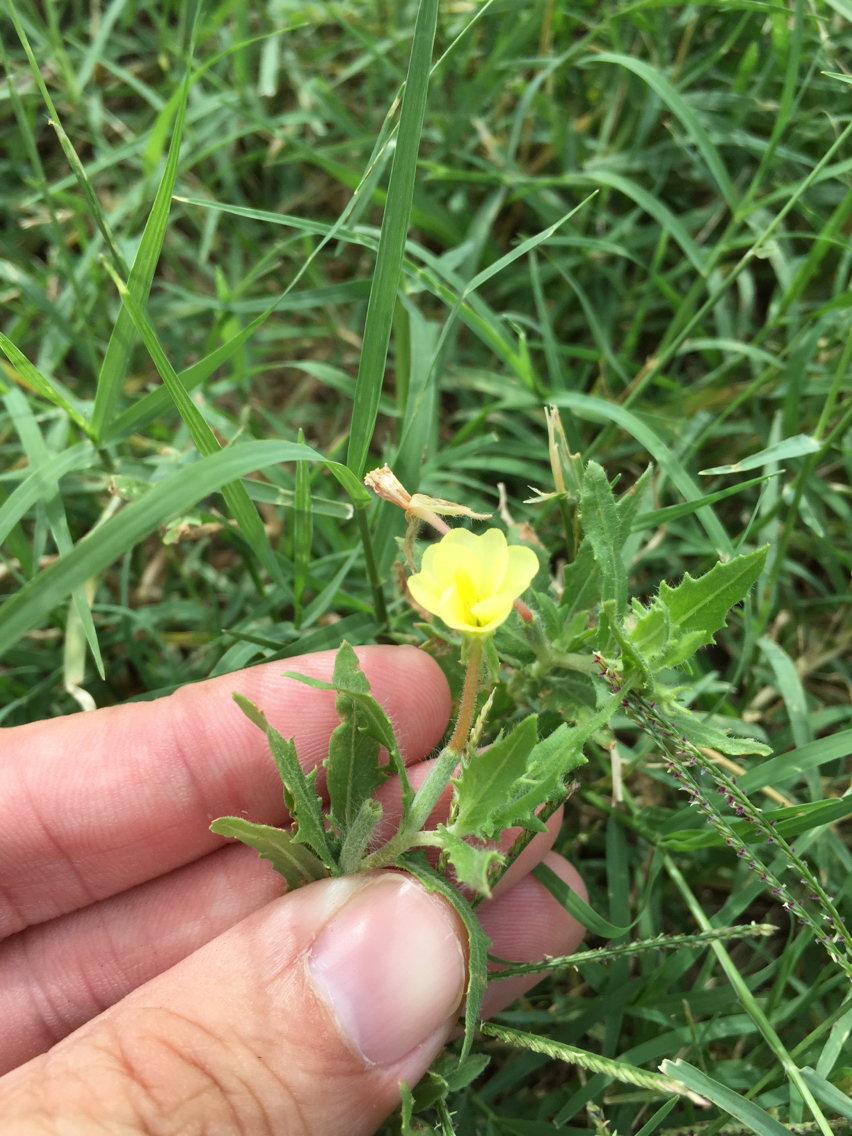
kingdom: Plantae
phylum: Tracheophyta
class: Magnoliopsida
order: Myrtales
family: Onagraceae
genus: Oenothera
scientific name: Oenothera laciniata
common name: Cut-leaved evening-primrose
